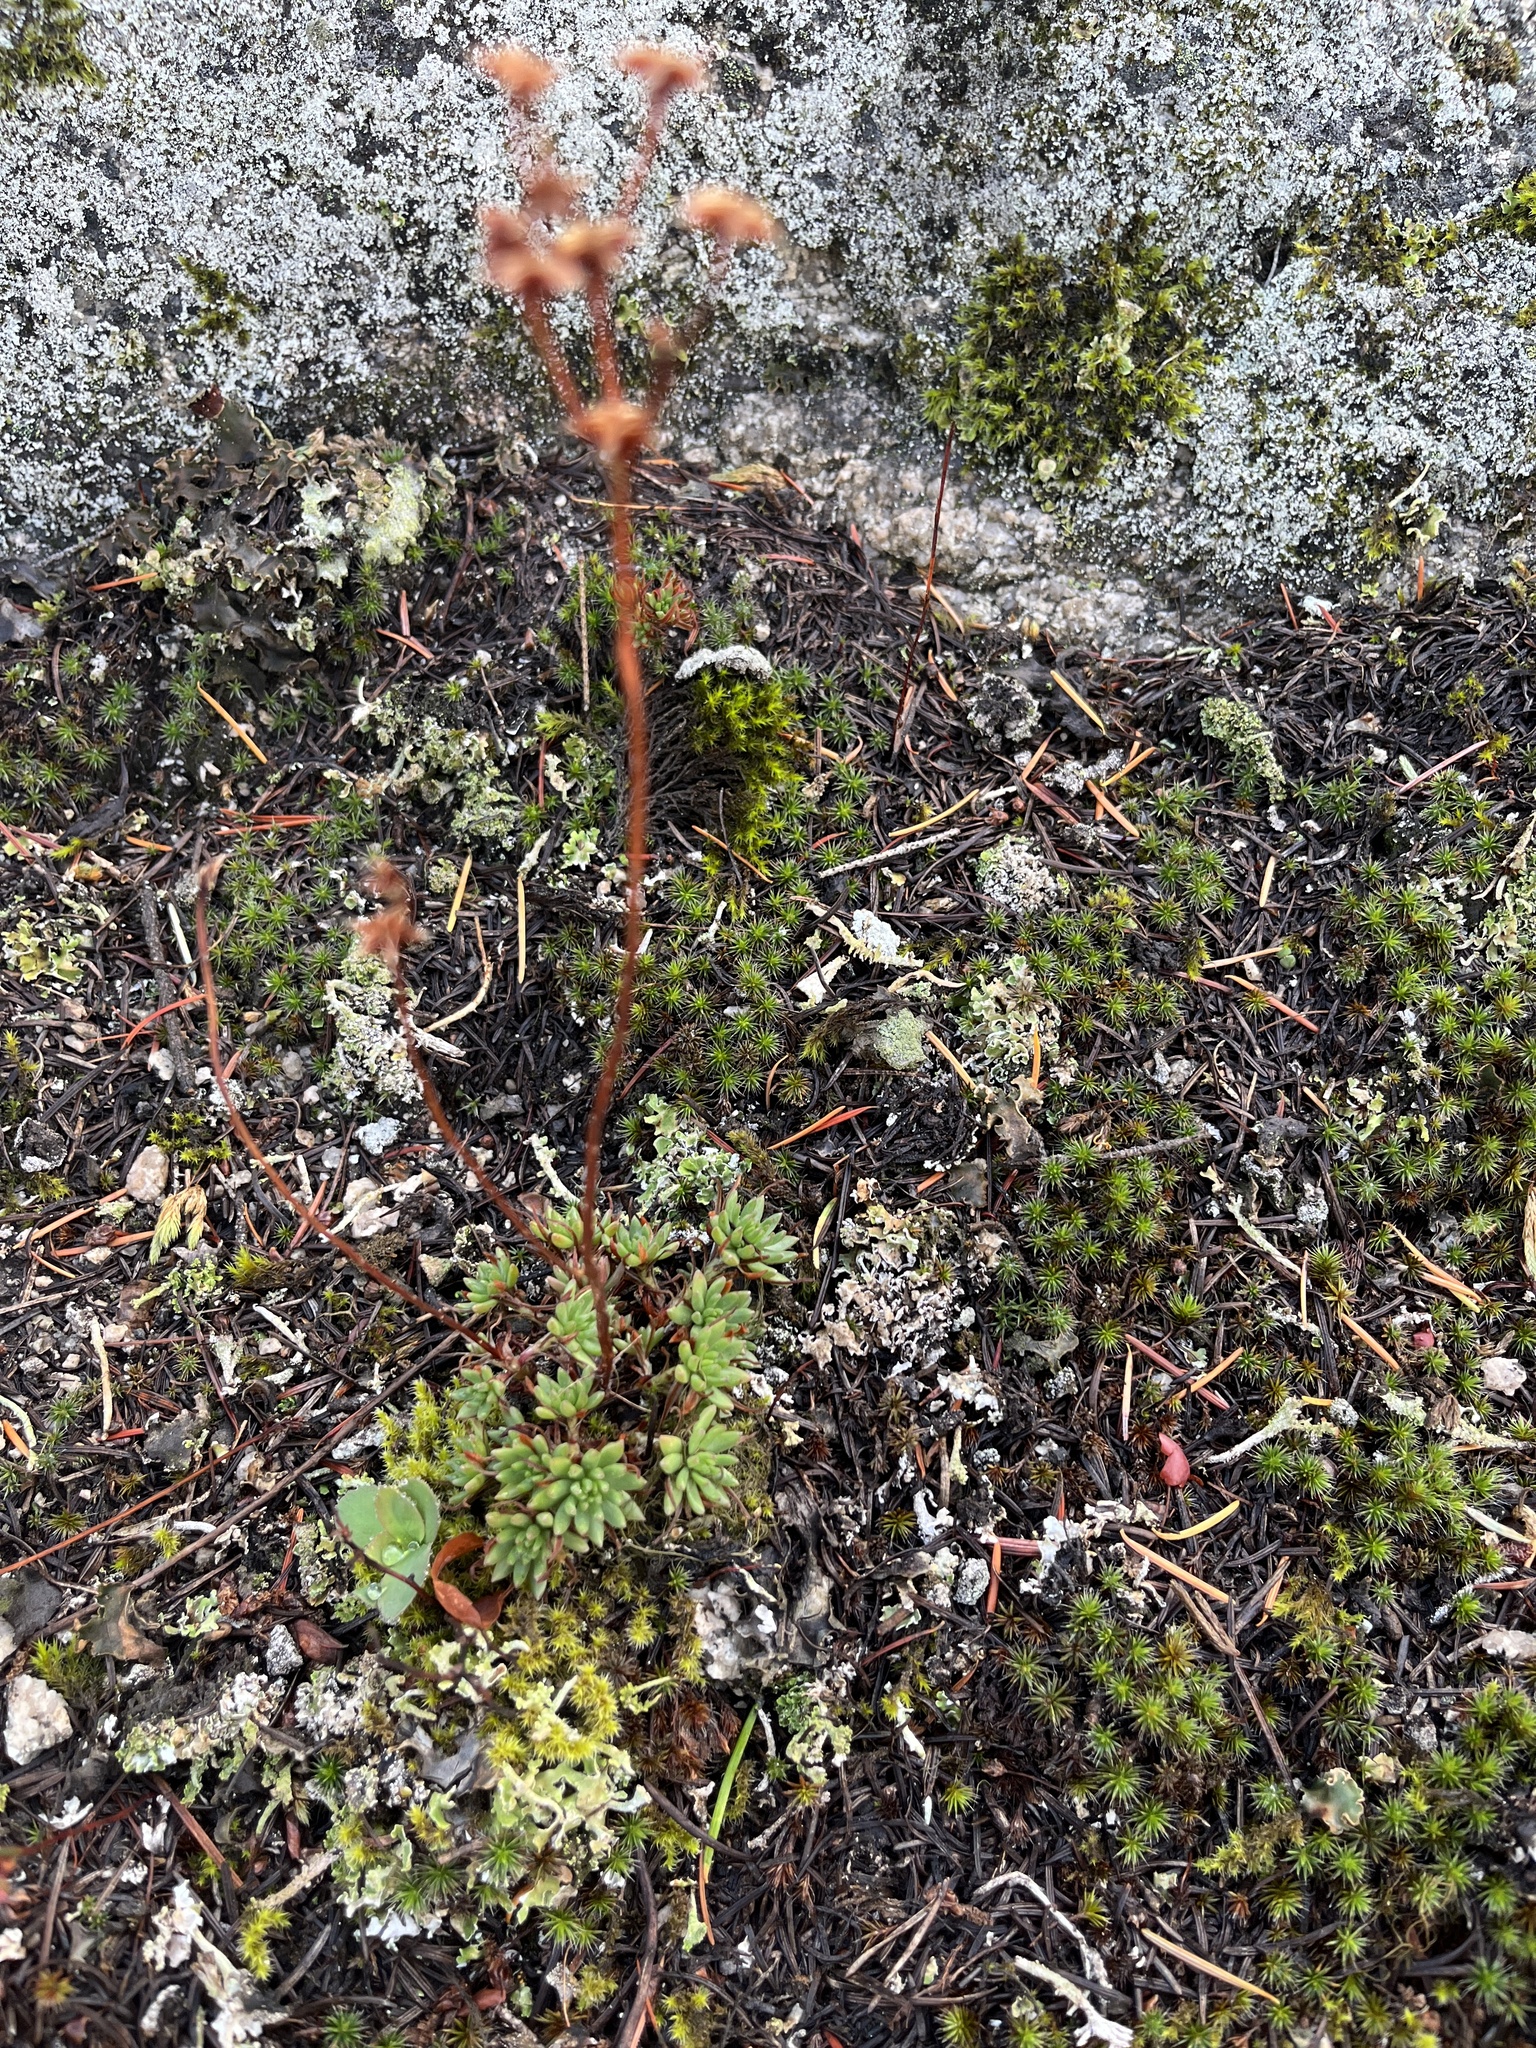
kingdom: Plantae
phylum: Tracheophyta
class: Magnoliopsida
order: Saxifragales
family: Crassulaceae
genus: Sedum
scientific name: Sedum stenopetalum
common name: Narrow-petaled stonecrop
